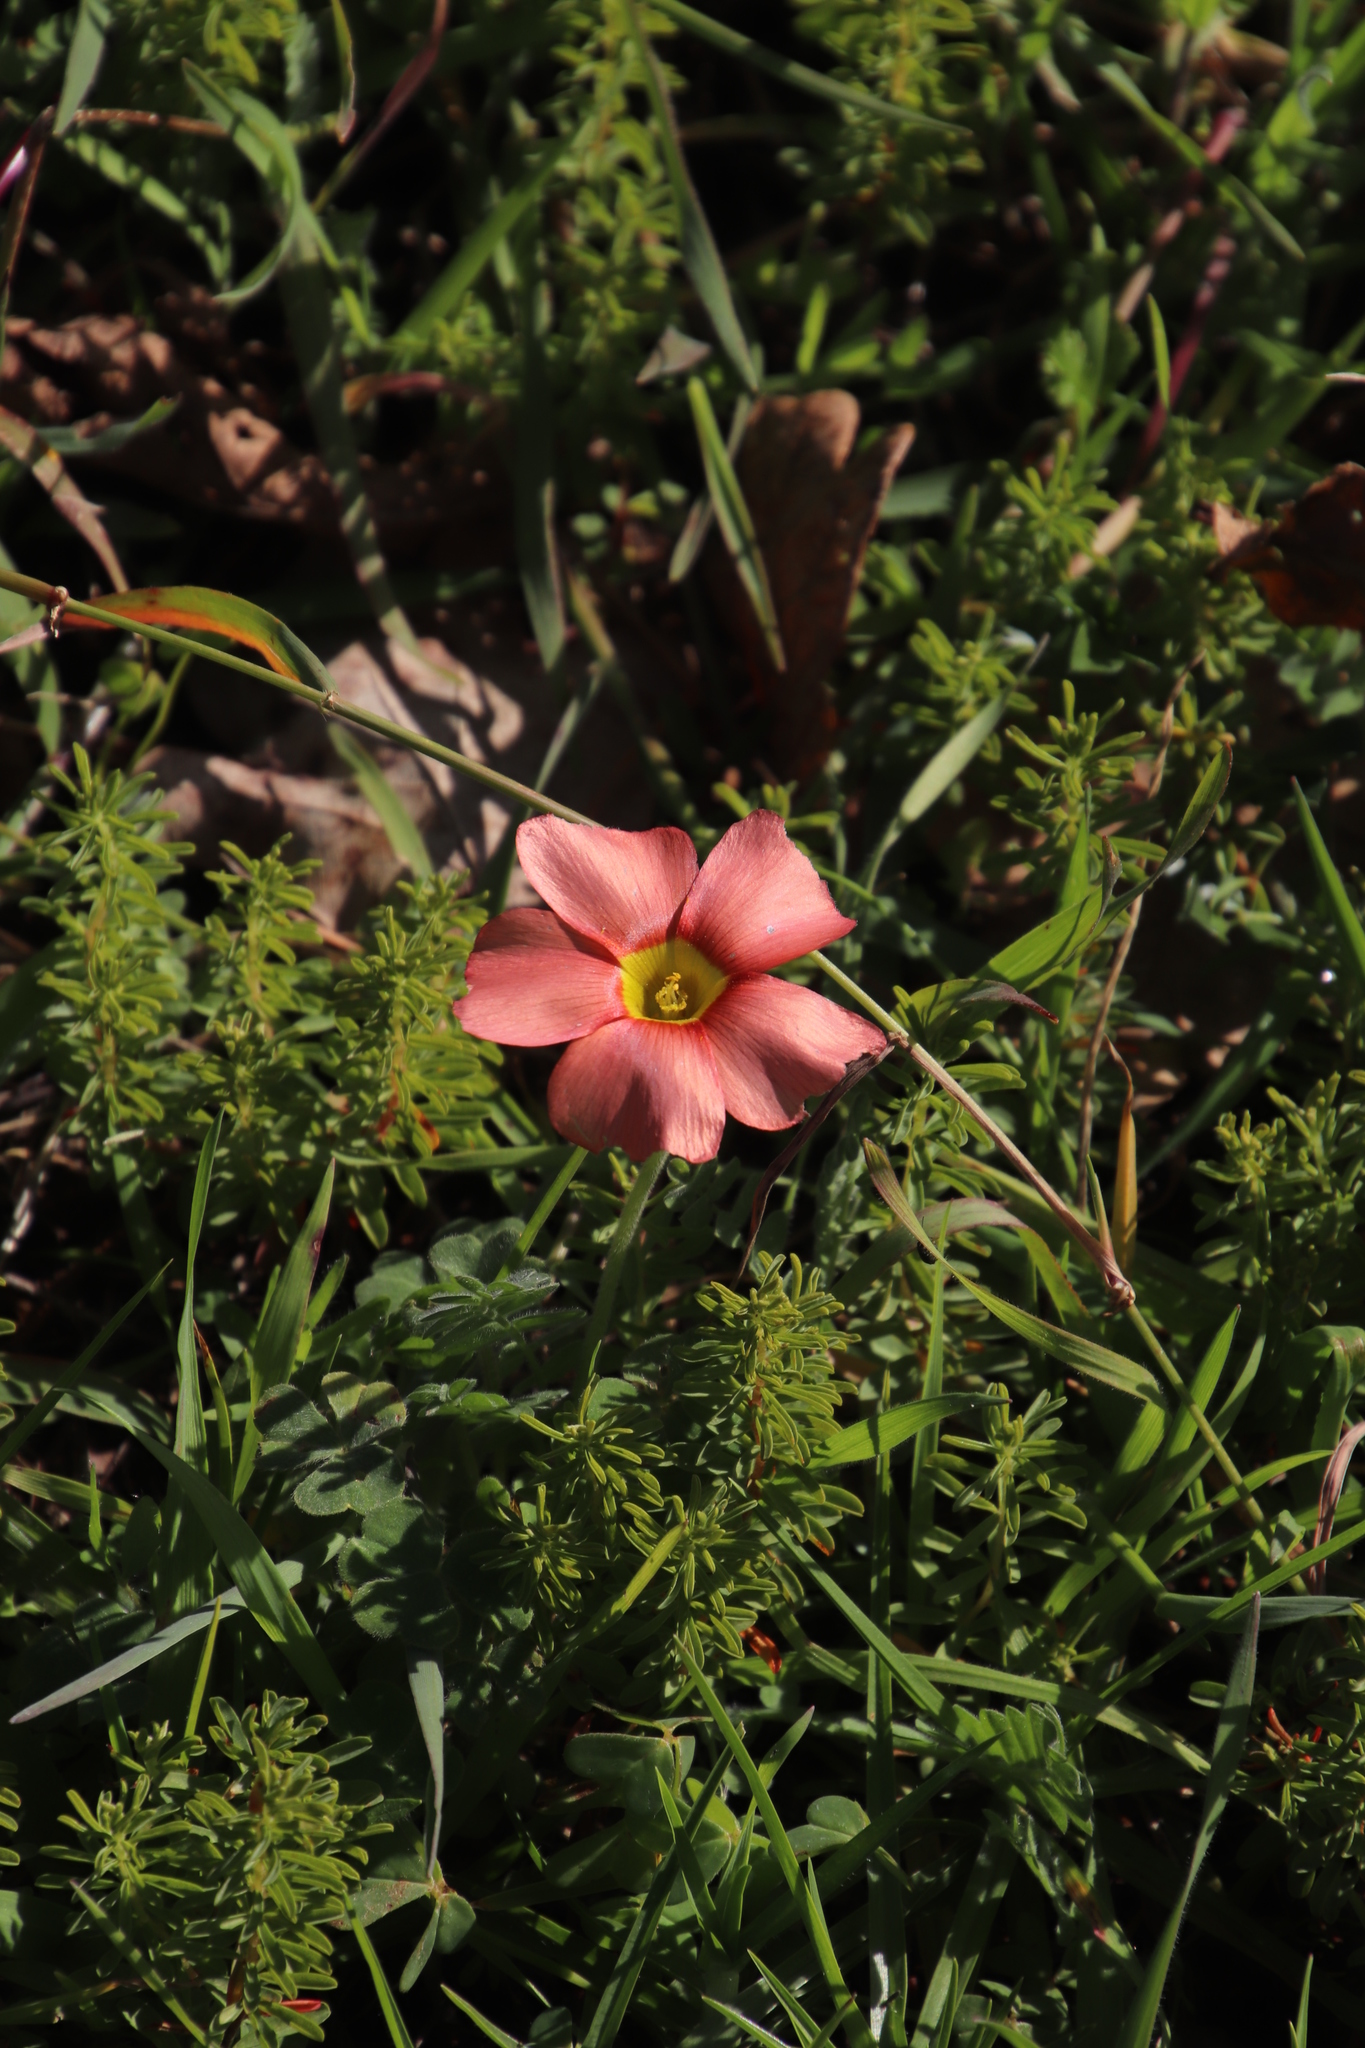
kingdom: Plantae
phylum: Tracheophyta
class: Magnoliopsida
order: Oxalidales
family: Oxalidaceae
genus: Oxalis
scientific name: Oxalis obtusa
